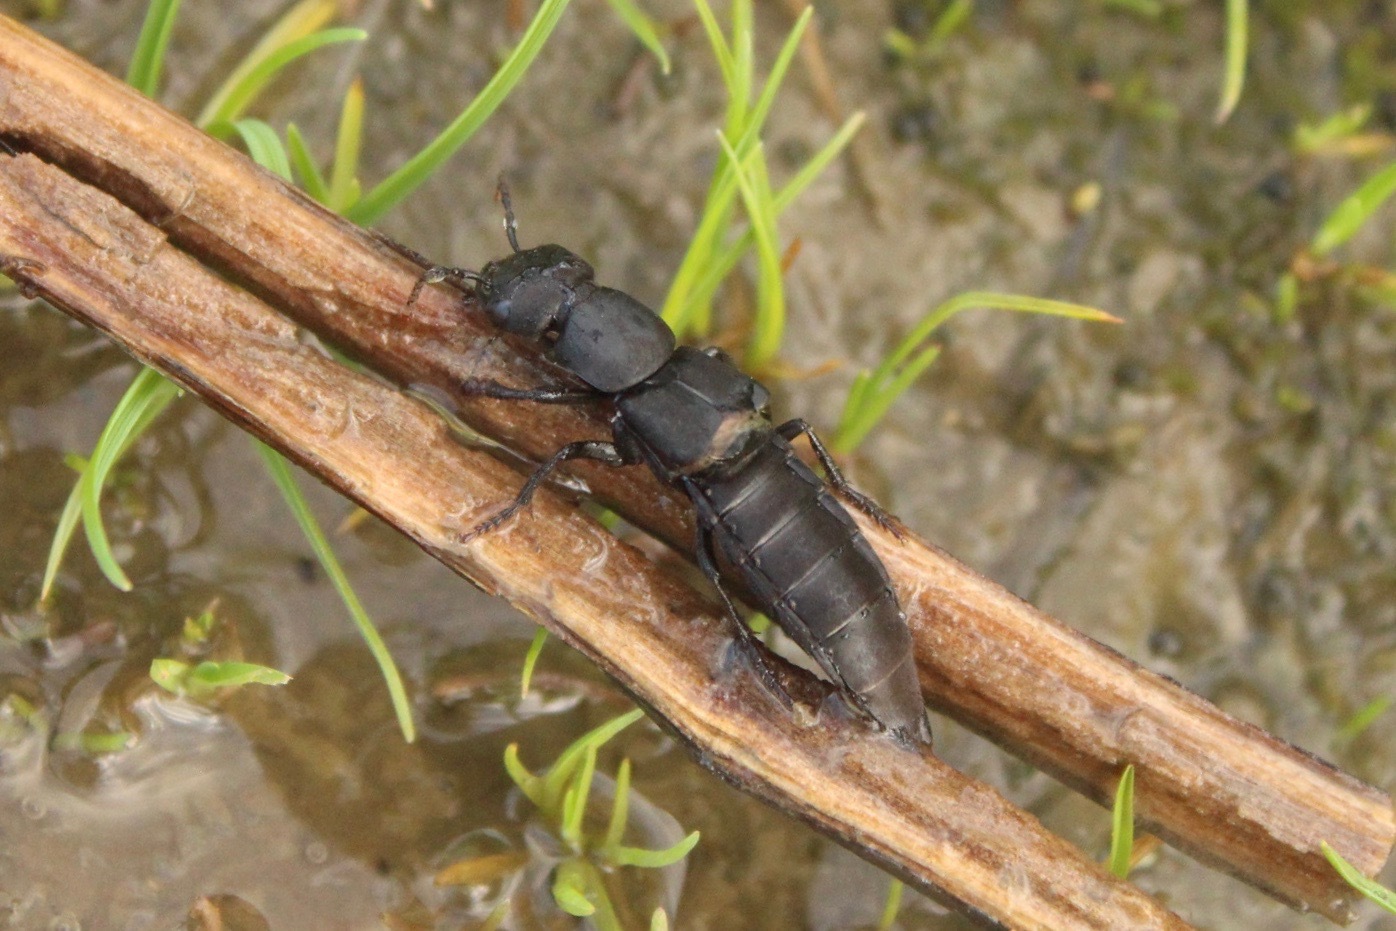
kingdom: Animalia
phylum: Arthropoda
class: Insecta
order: Coleoptera
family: Staphylinidae
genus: Ocypus
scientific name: Ocypus olens
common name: Devil's coach-horse
